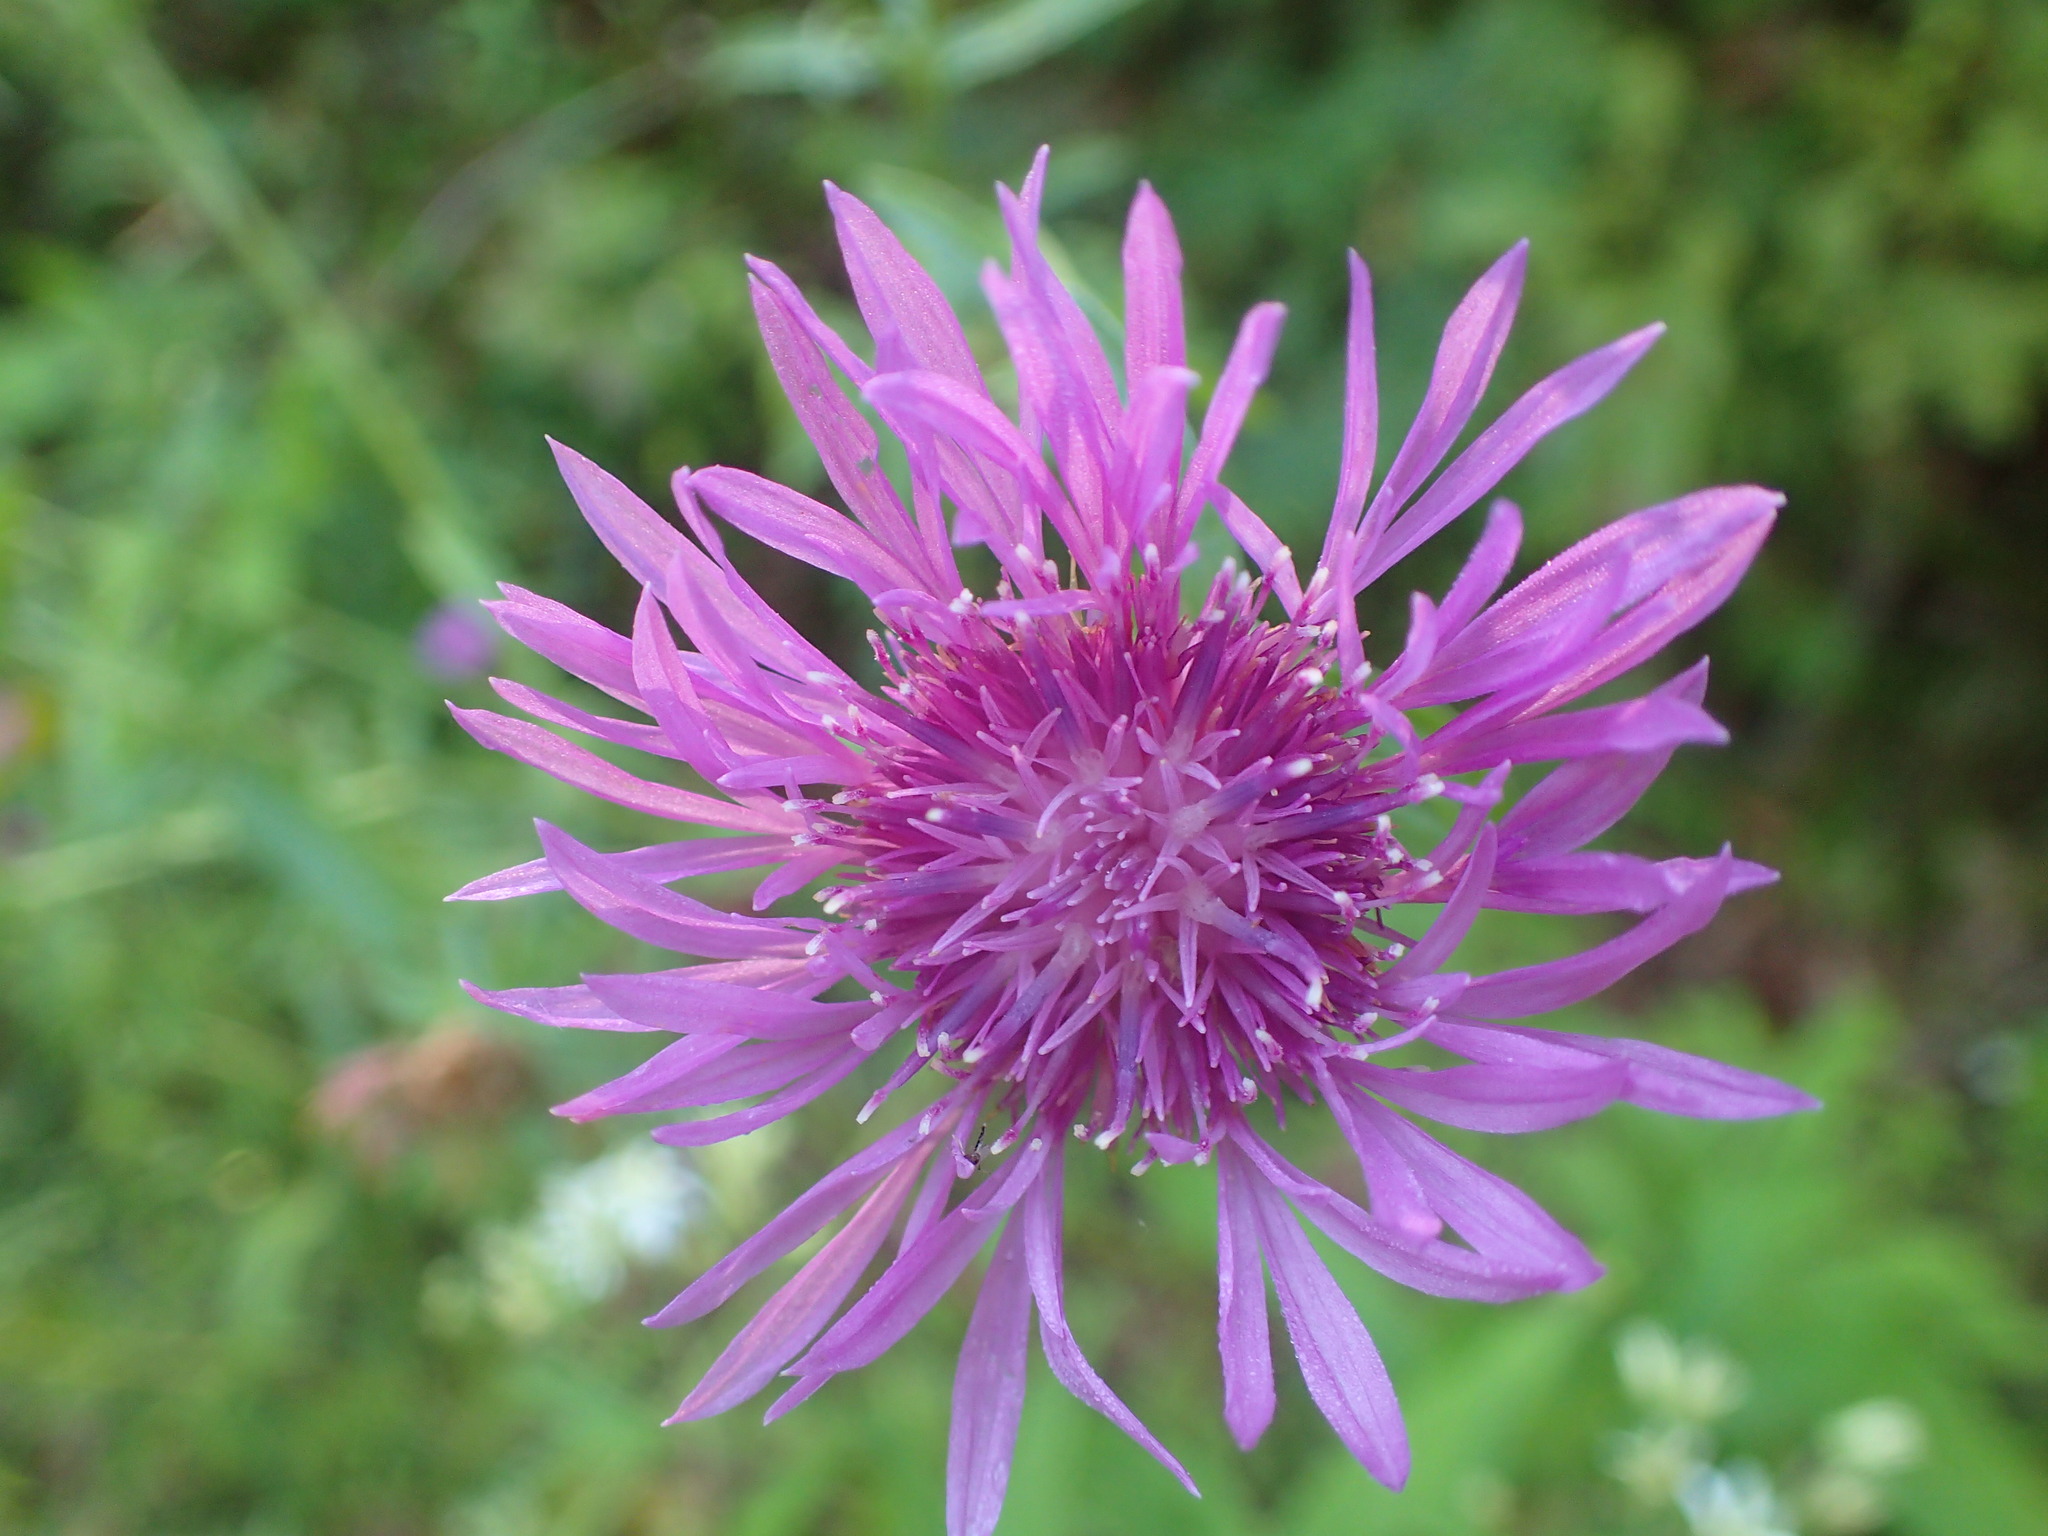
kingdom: Plantae
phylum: Tracheophyta
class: Magnoliopsida
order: Asterales
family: Asteraceae
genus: Centaurea
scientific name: Centaurea stoebe
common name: Spotted knapweed
